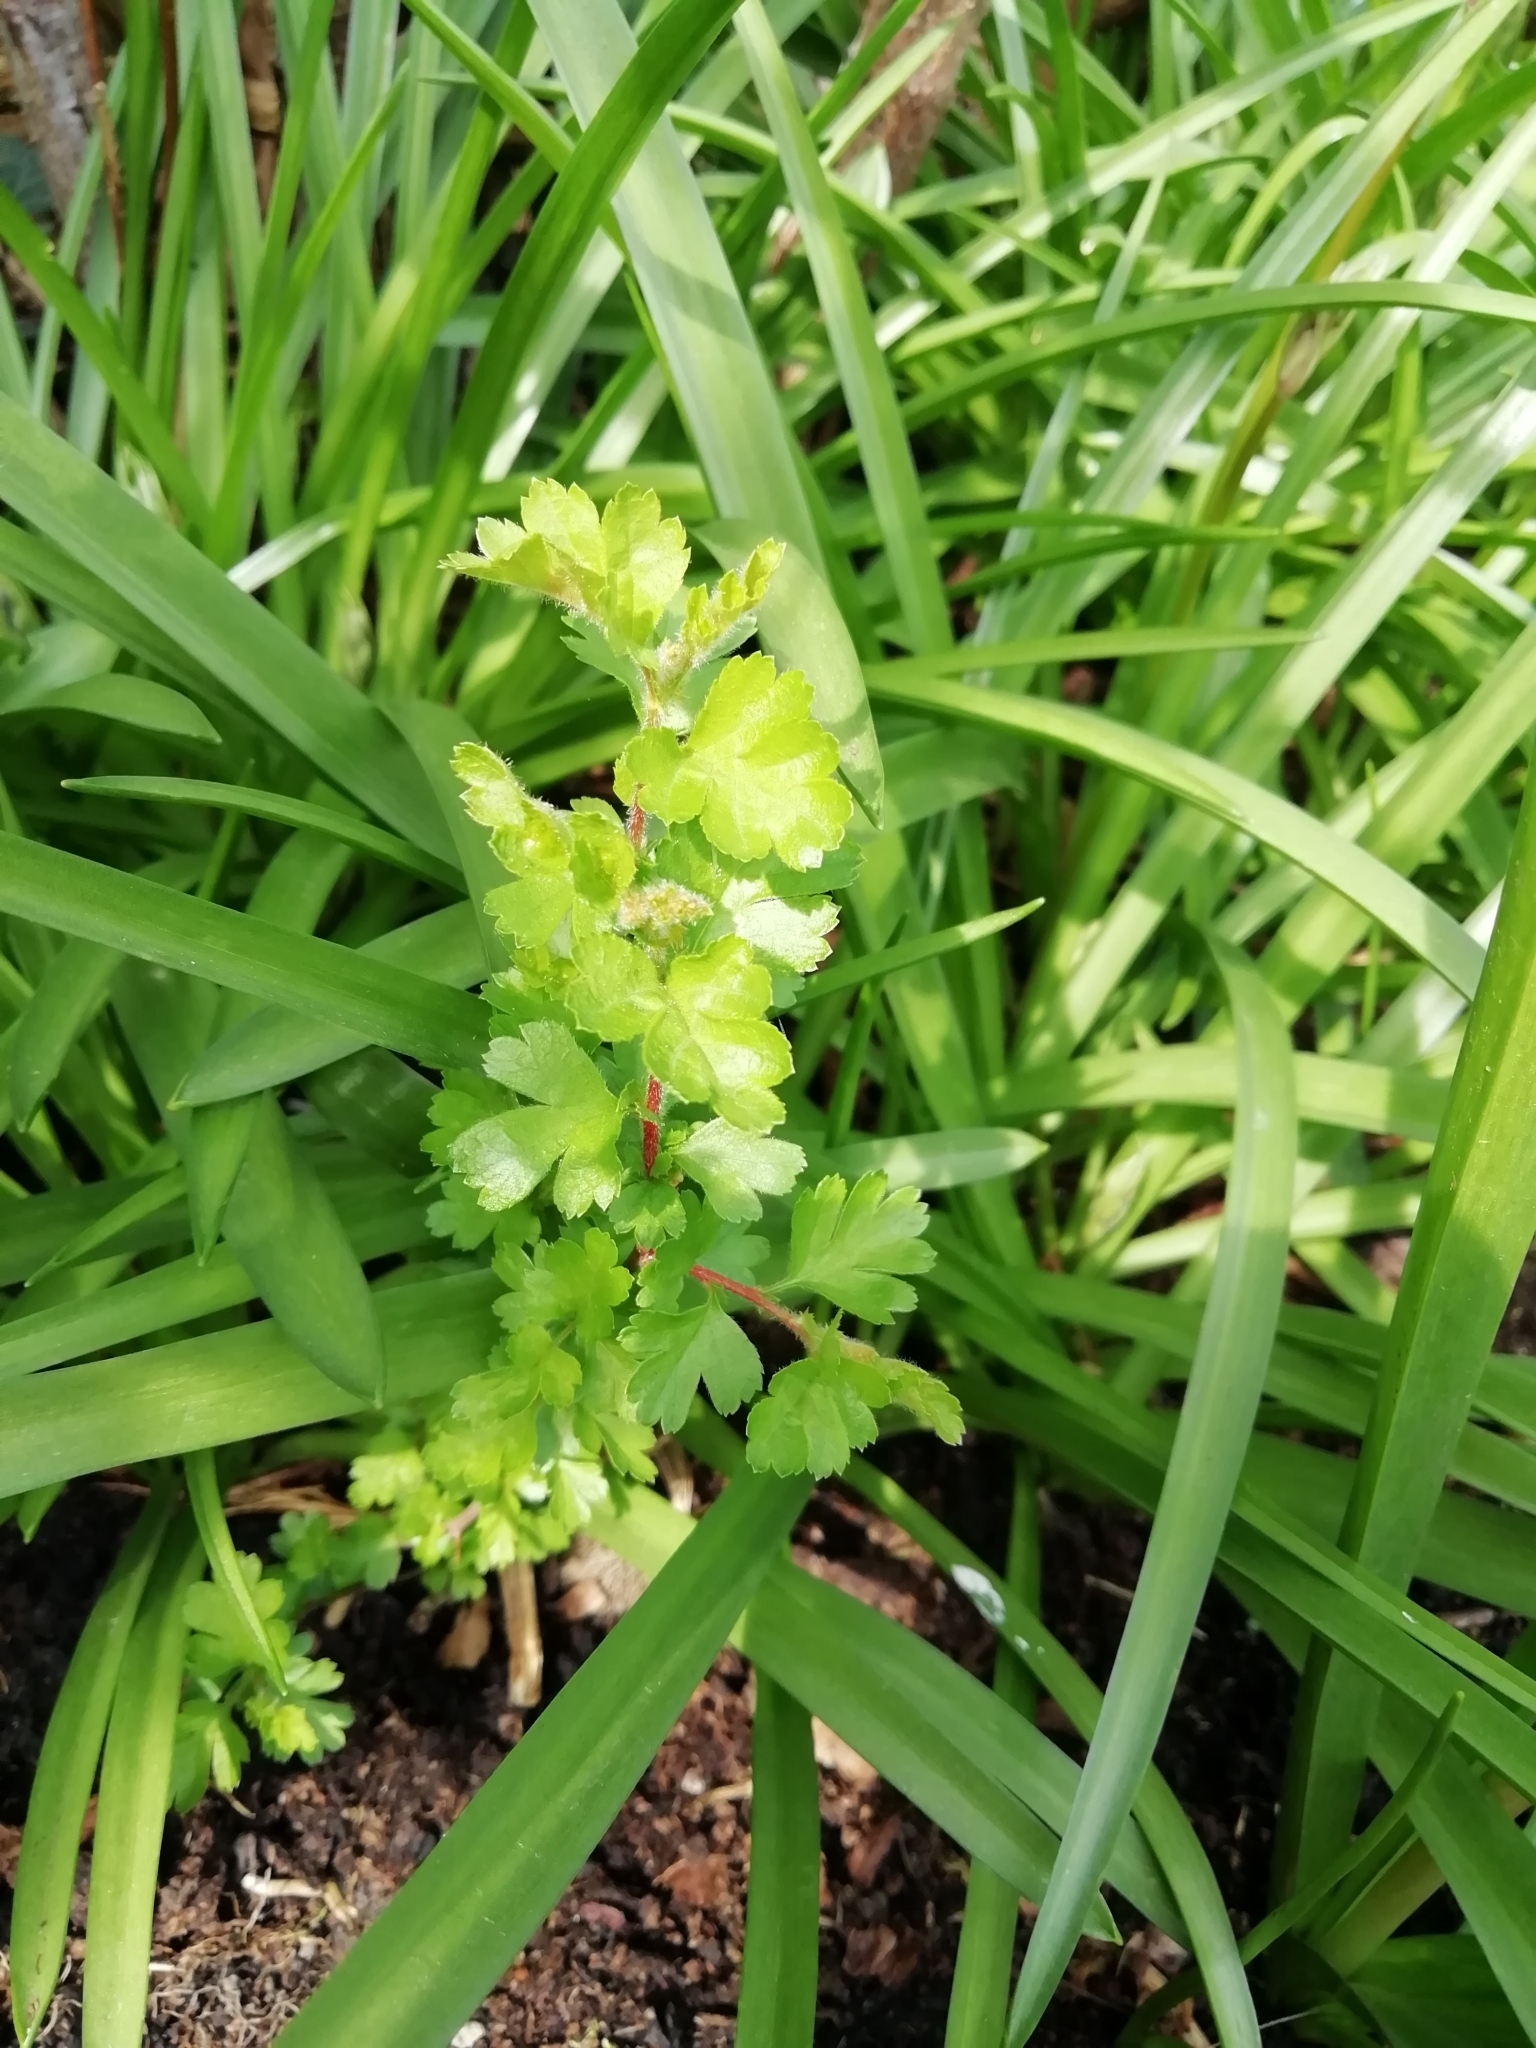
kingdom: Plantae
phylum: Tracheophyta
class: Magnoliopsida
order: Rosales
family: Rosaceae
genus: Crataegus
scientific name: Crataegus monogyna
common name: Hawthorn
